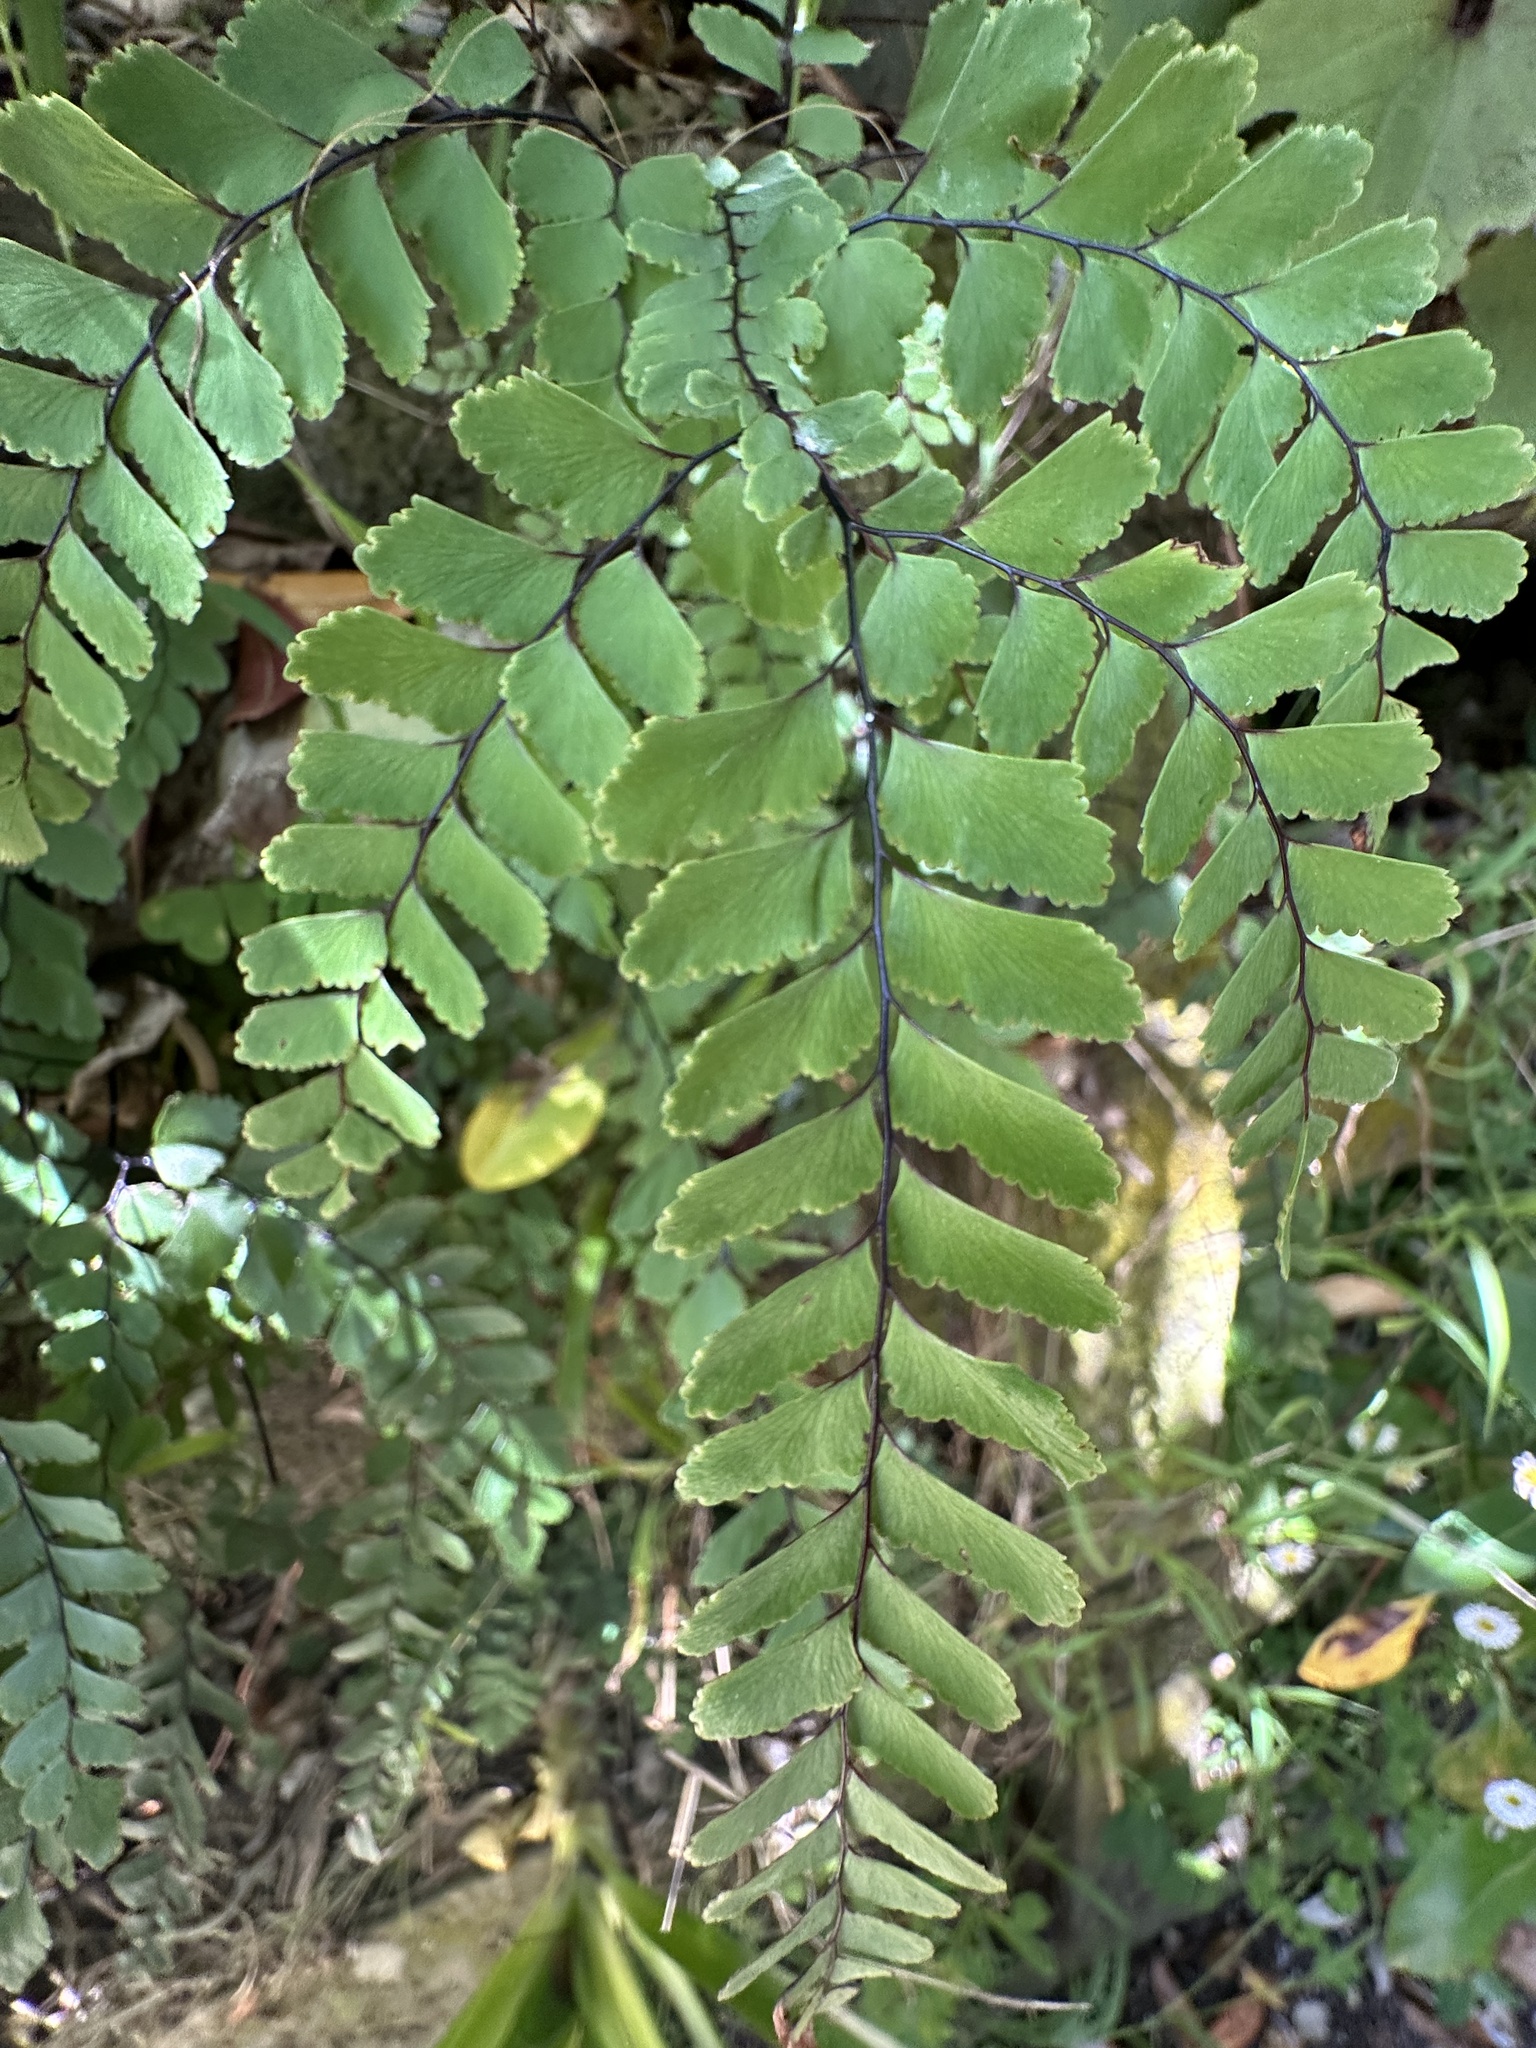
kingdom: Plantae
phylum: Tracheophyta
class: Polypodiopsida
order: Polypodiales
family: Pteridaceae
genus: Adiantum
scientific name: Adiantum cunninghamii
